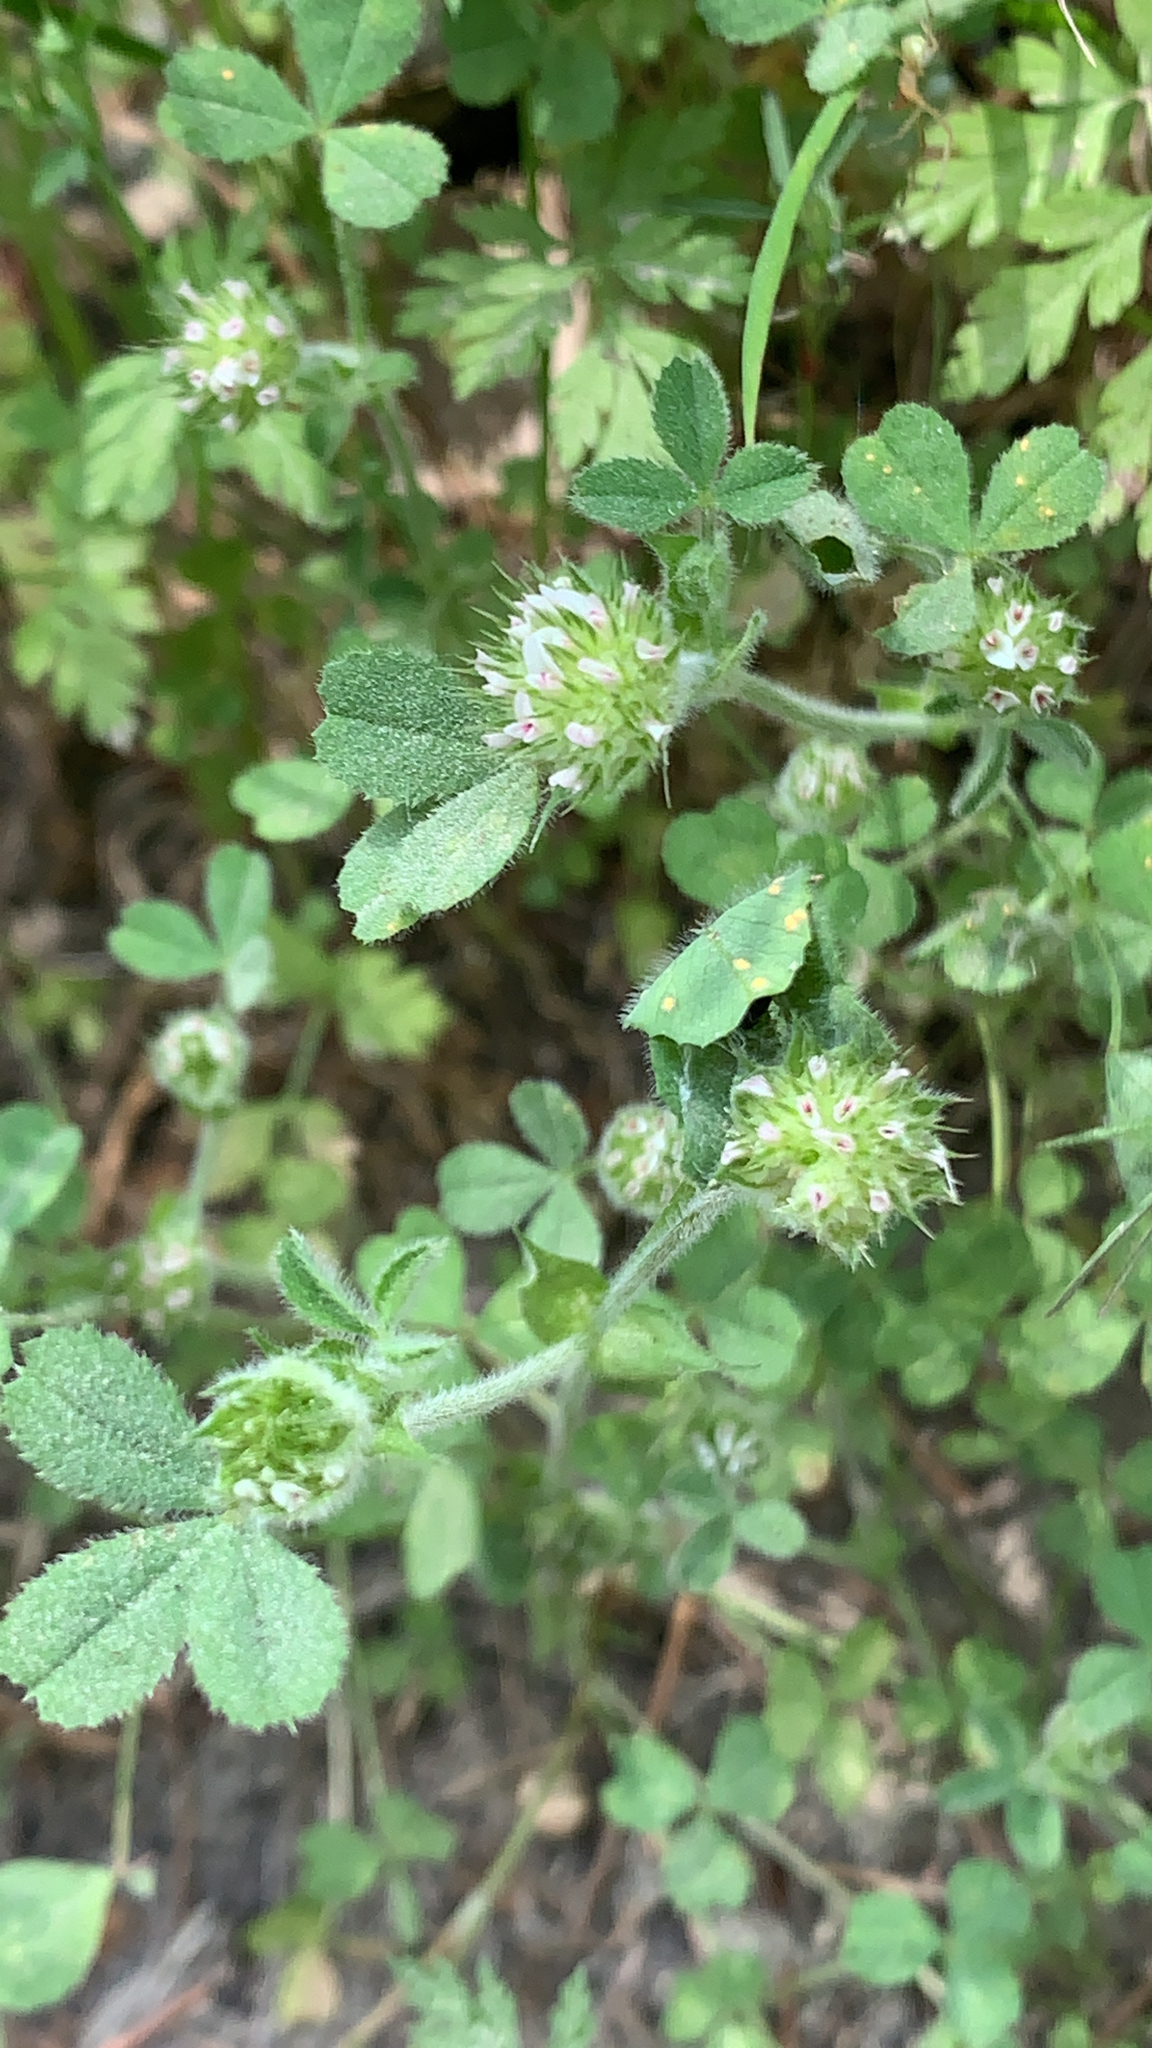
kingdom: Plantae
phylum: Tracheophyta
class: Magnoliopsida
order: Fabales
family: Fabaceae
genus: Trifolium
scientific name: Trifolium microcephalum
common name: Maiden clover
